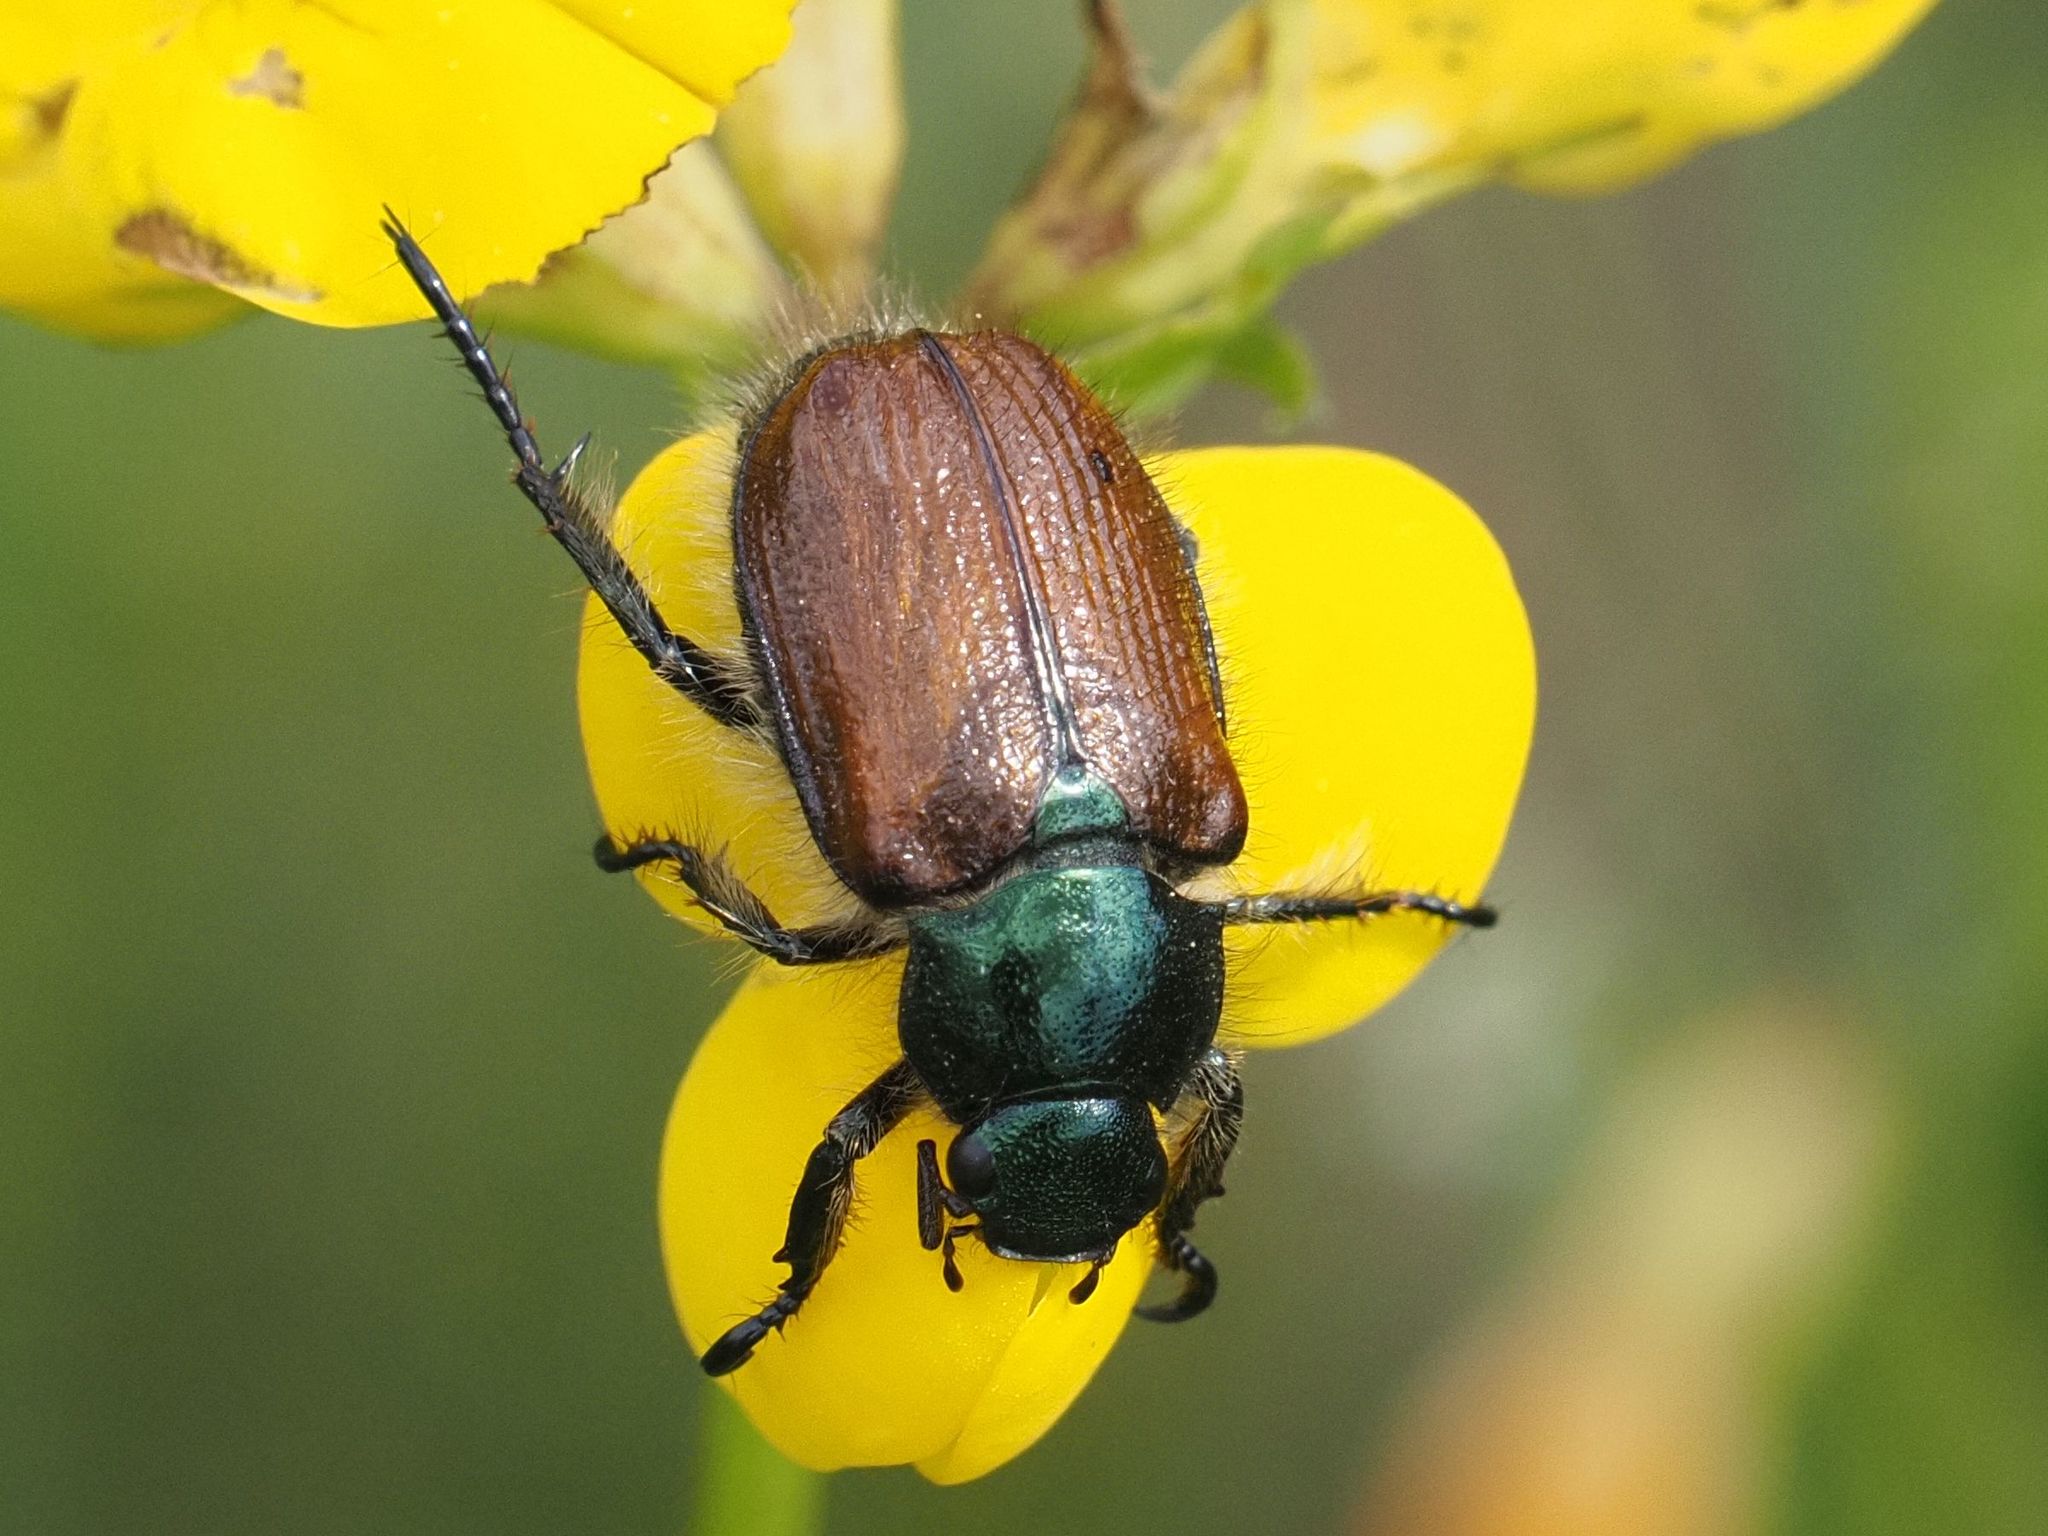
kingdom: Animalia
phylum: Arthropoda
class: Insecta
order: Coleoptera
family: Scarabaeidae
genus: Phyllopertha
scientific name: Phyllopertha horticola
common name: Garden chafer
